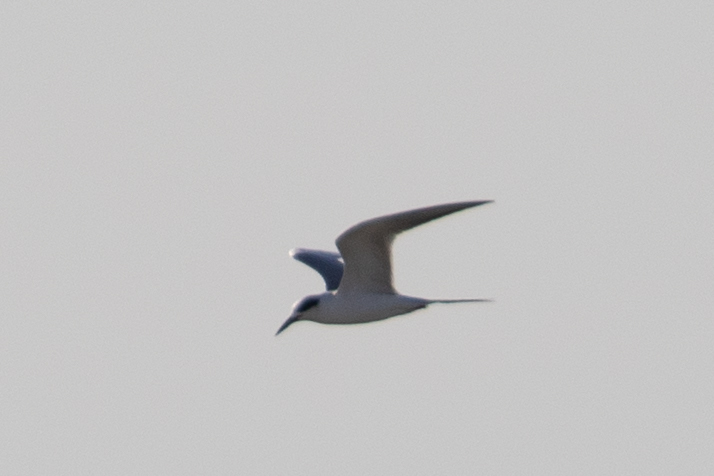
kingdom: Animalia
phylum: Chordata
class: Aves
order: Charadriiformes
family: Laridae
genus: Sterna
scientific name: Sterna forsteri
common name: Forster's tern
